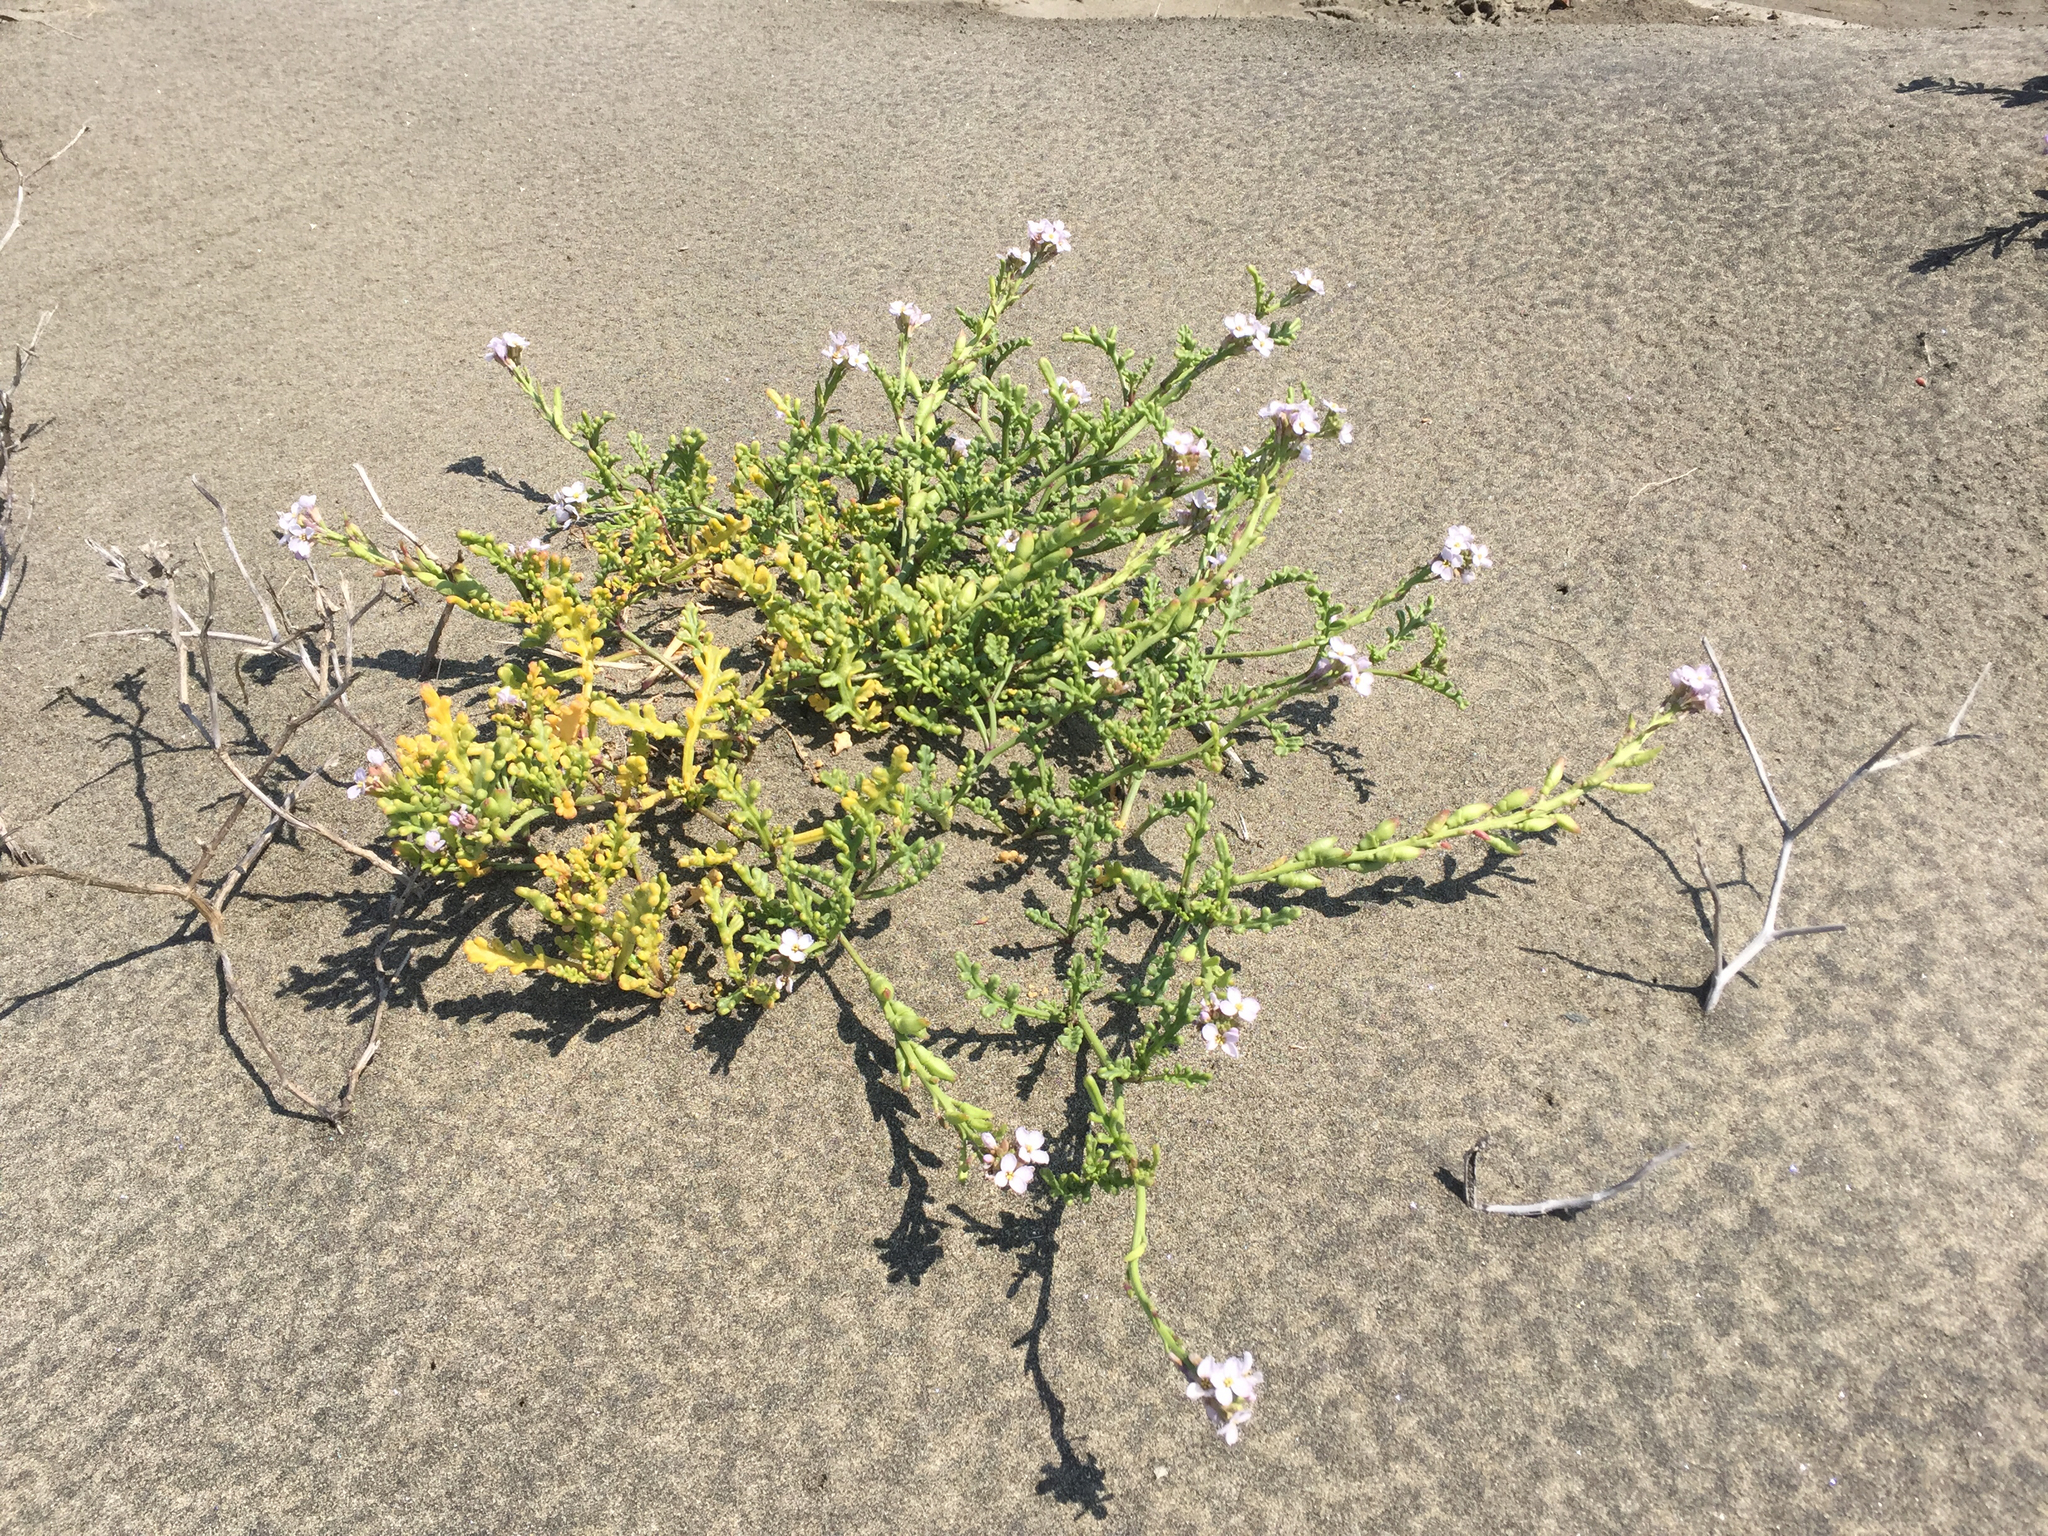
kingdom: Plantae
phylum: Tracheophyta
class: Magnoliopsida
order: Brassicales
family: Brassicaceae
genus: Cakile
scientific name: Cakile maritima
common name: Sea rocket
